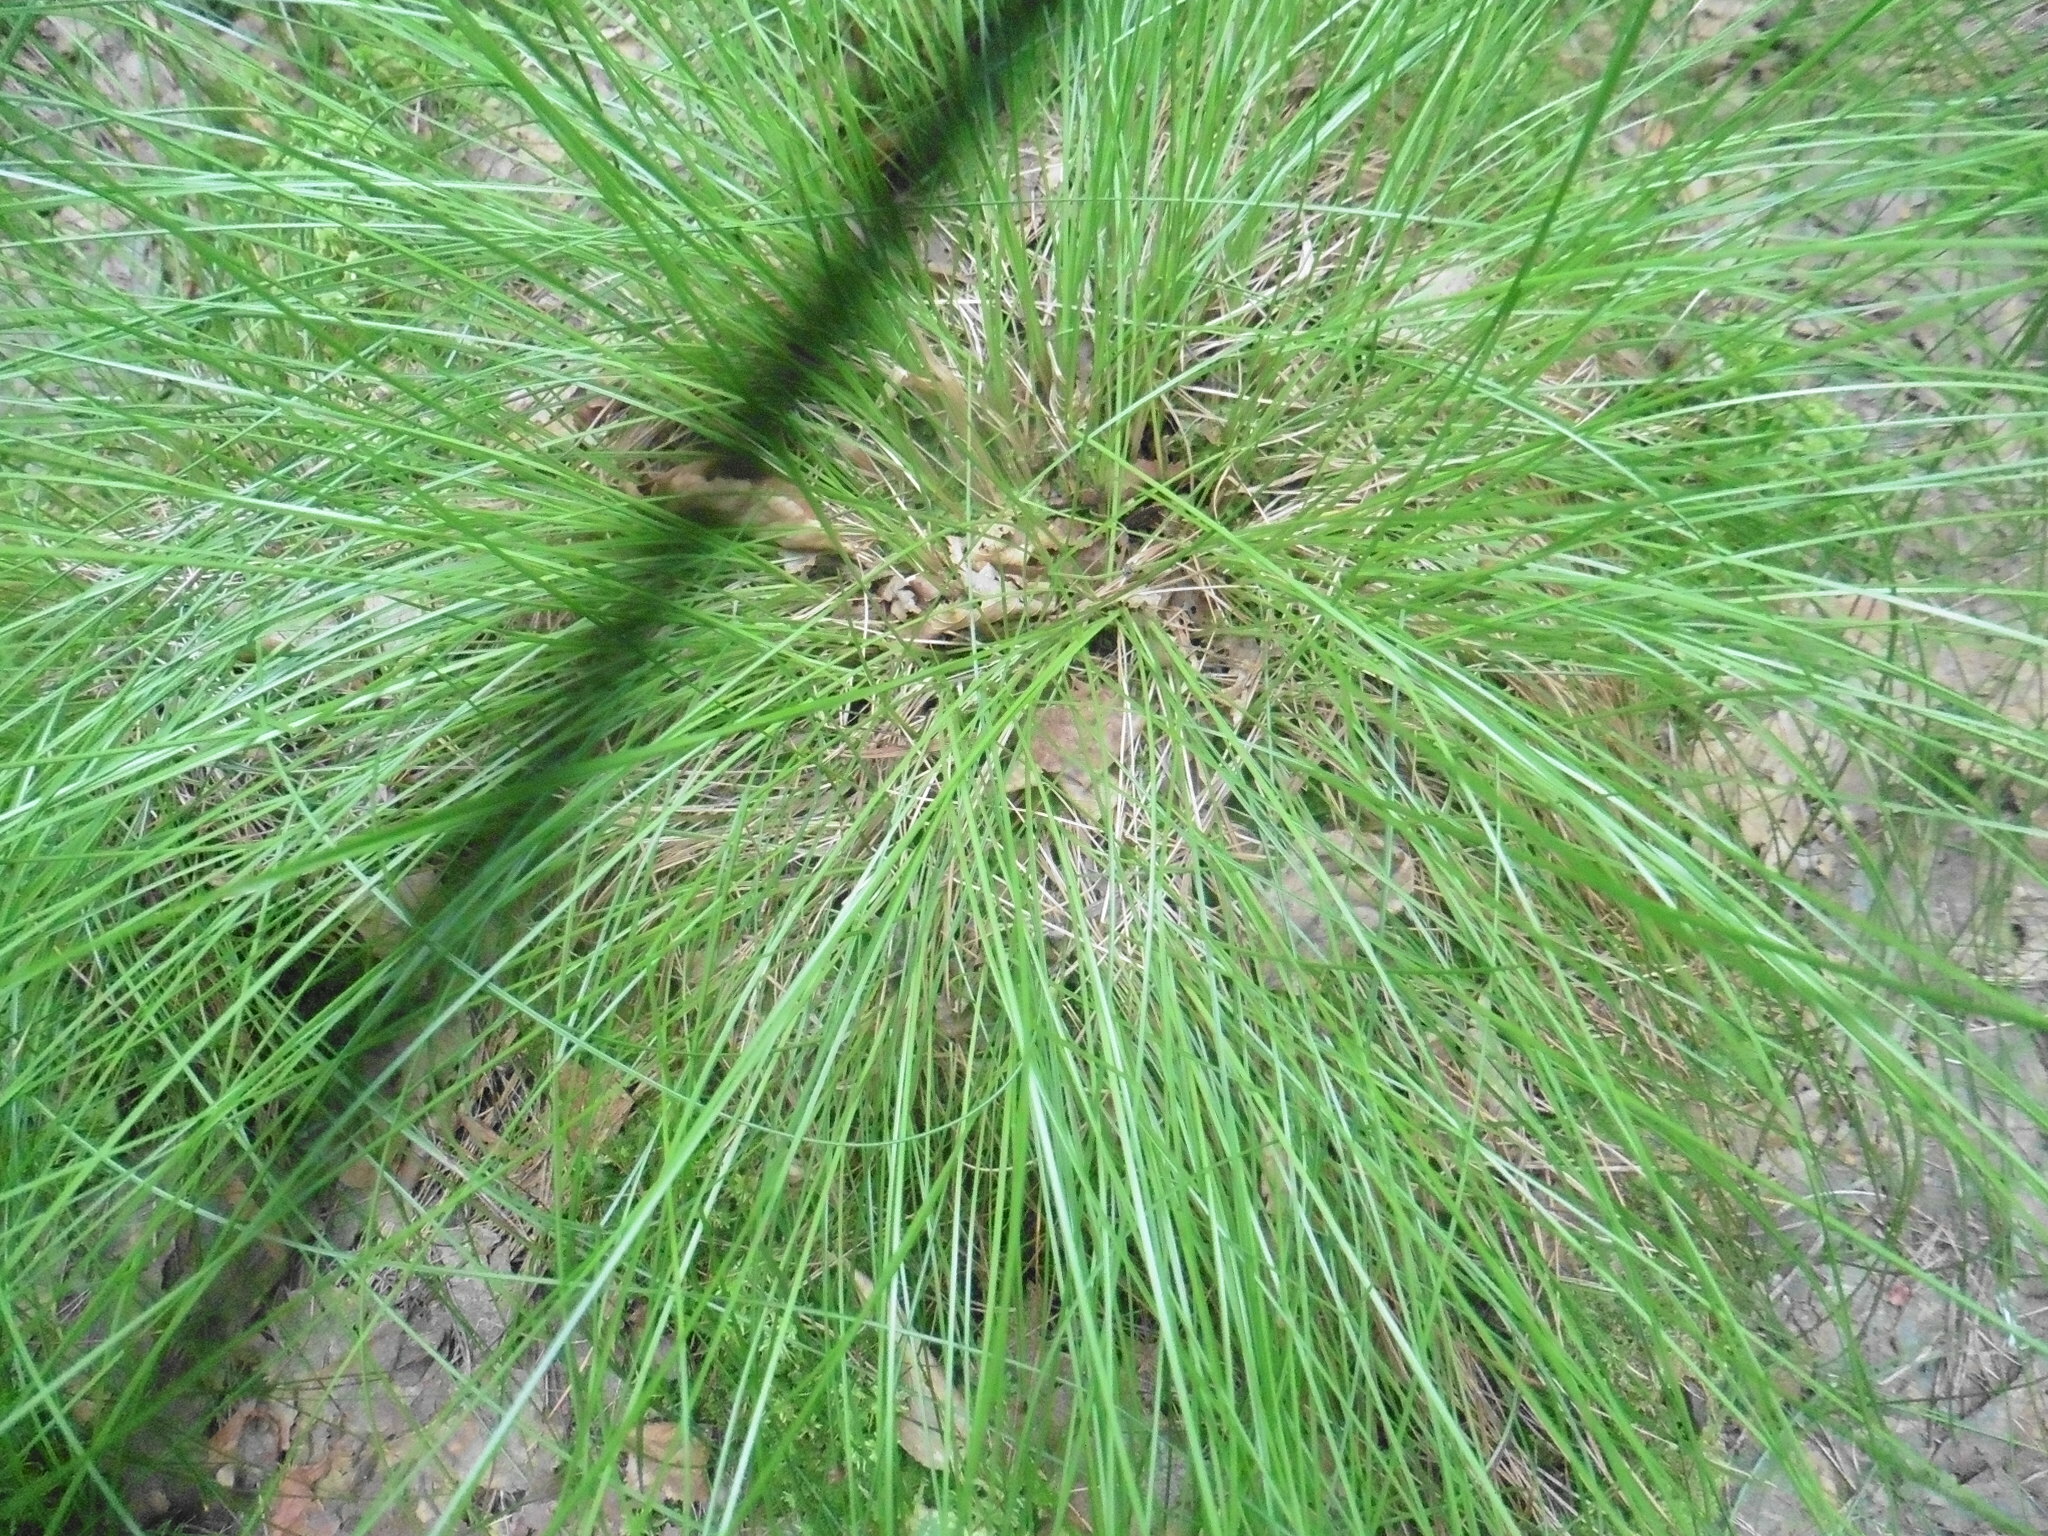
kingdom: Plantae
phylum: Tracheophyta
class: Liliopsida
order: Poales
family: Cyperaceae
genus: Eriophorum
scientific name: Eriophorum vaginatum
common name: Hare's-tail cottongrass
